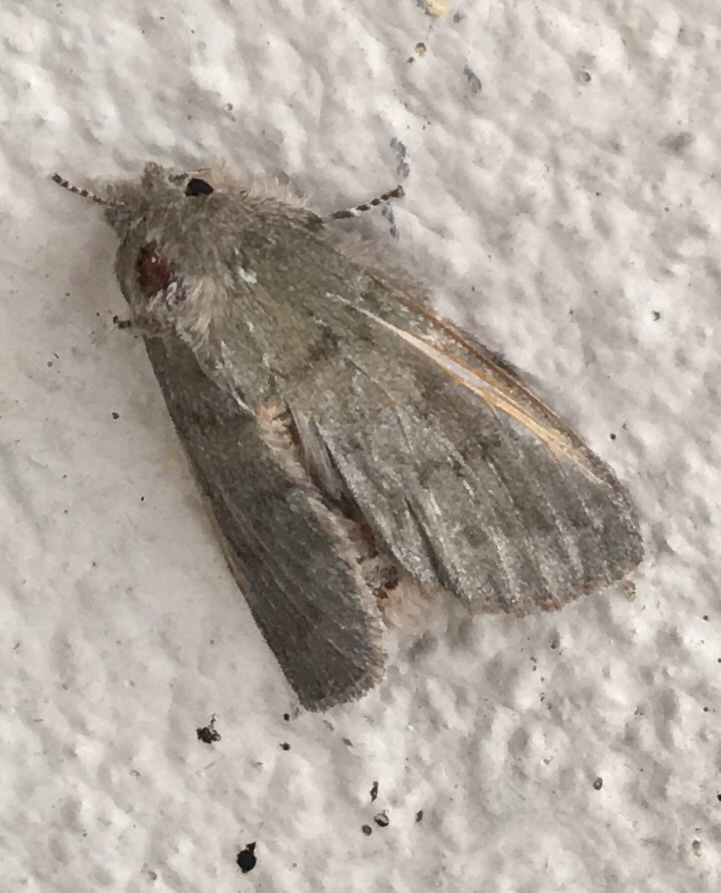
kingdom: Animalia
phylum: Arthropoda
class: Insecta
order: Lepidoptera
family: Notodontidae
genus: Misogada
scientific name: Misogada unicolor
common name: Drab prominent
